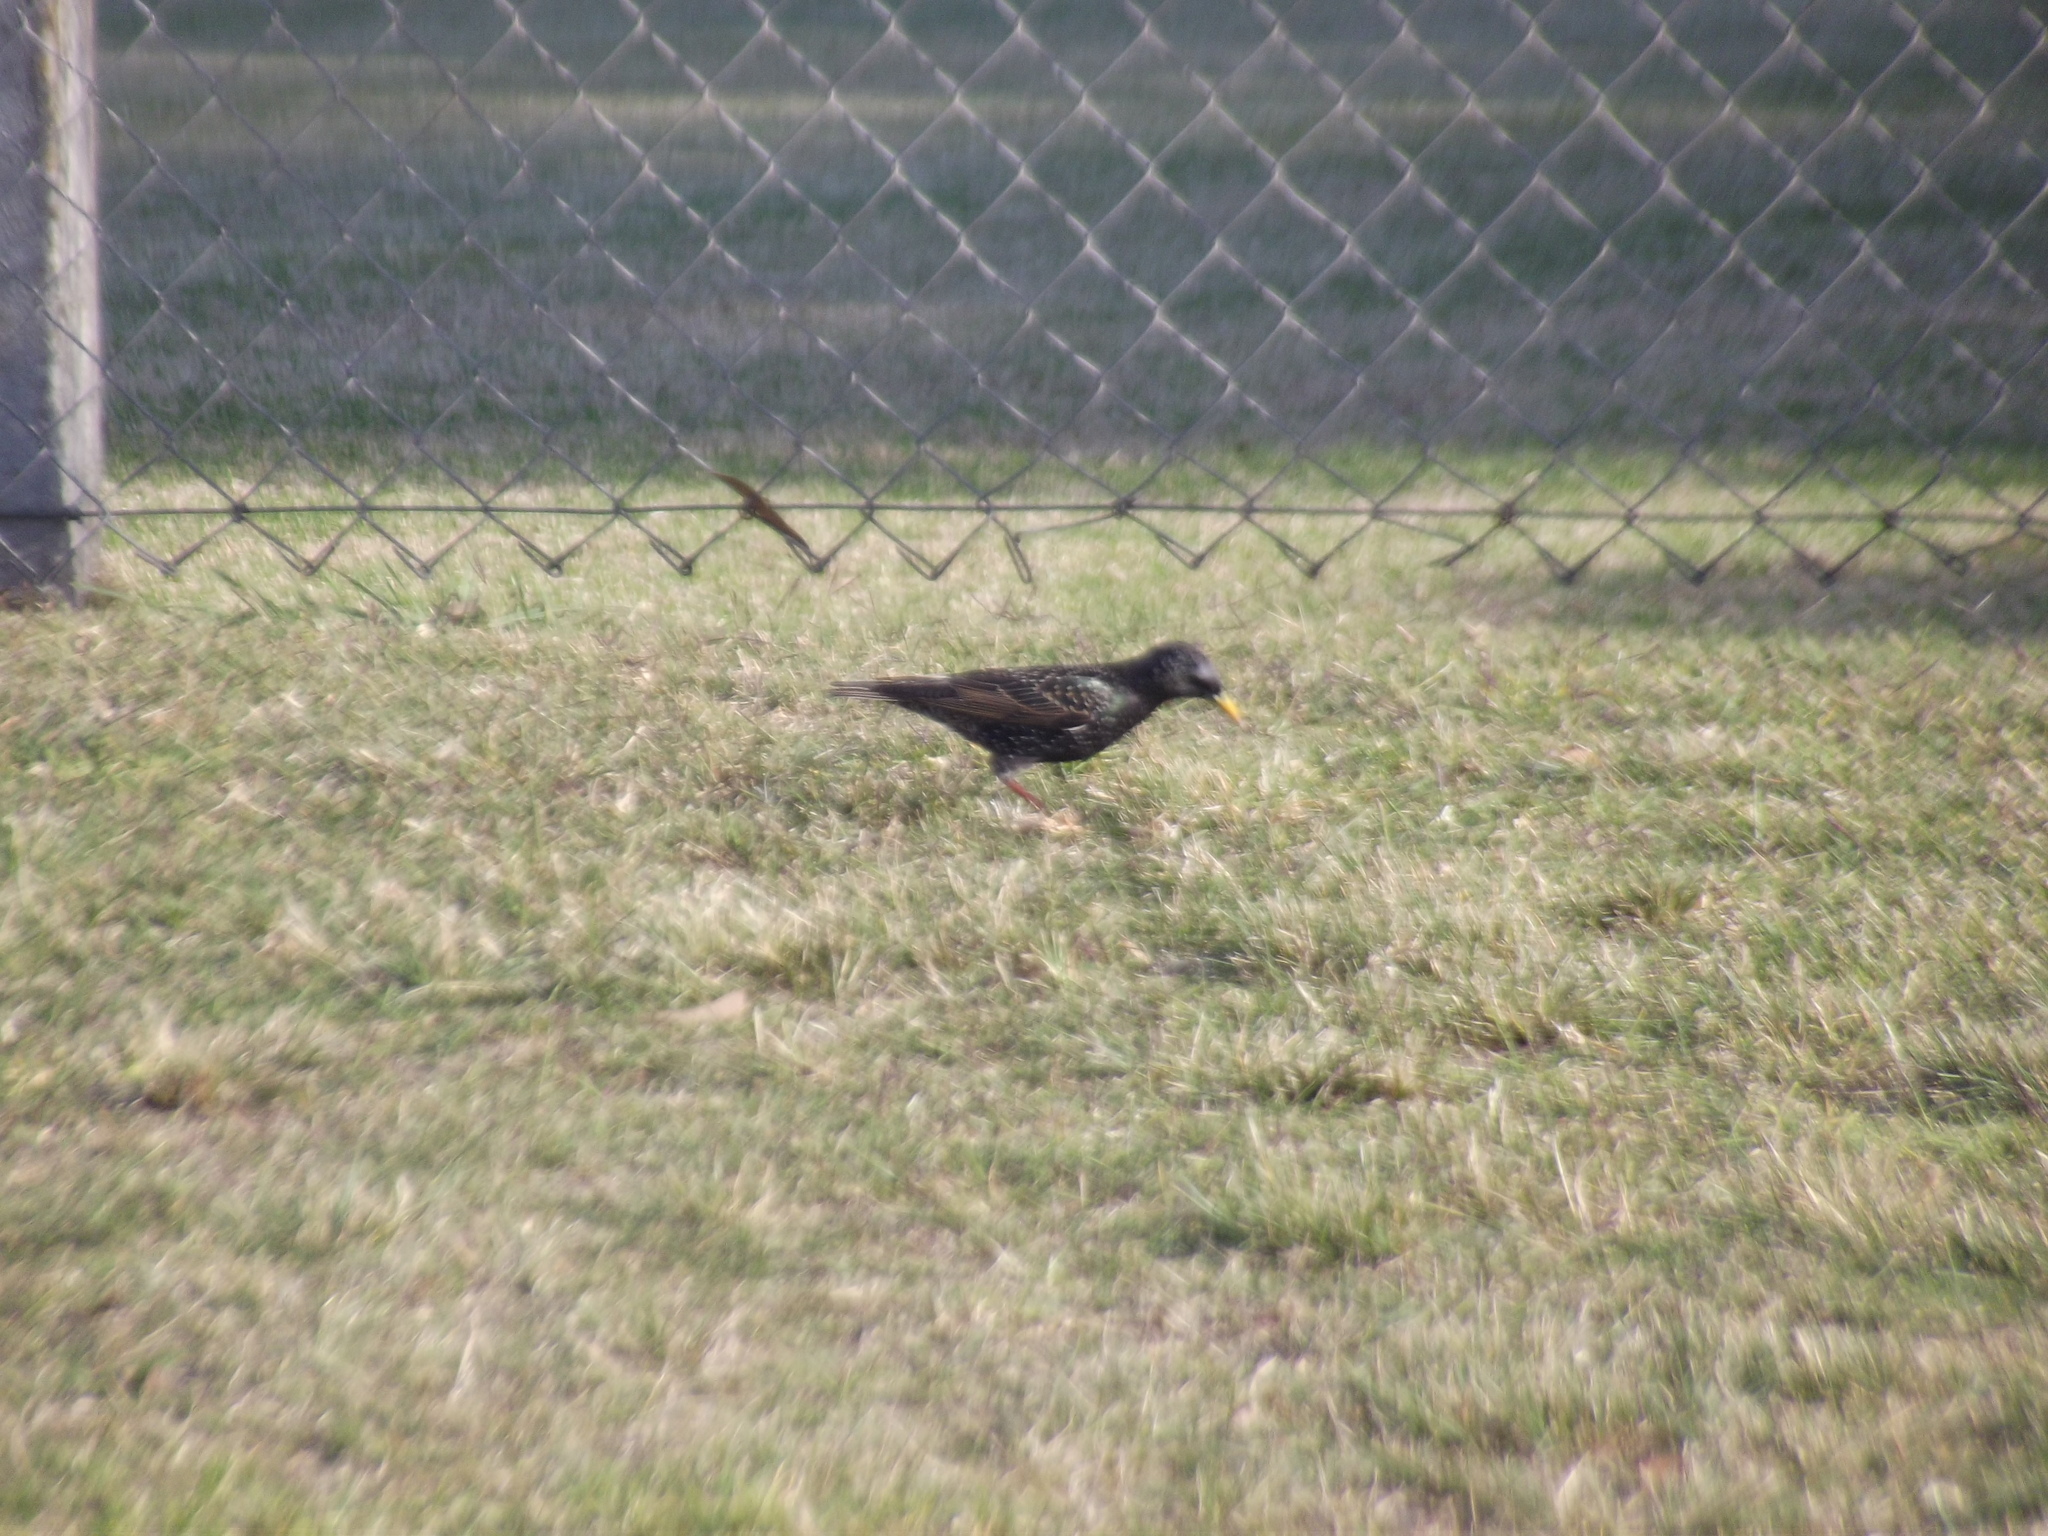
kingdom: Animalia
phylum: Chordata
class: Aves
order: Passeriformes
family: Sturnidae
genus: Sturnus
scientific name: Sturnus vulgaris
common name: Common starling
